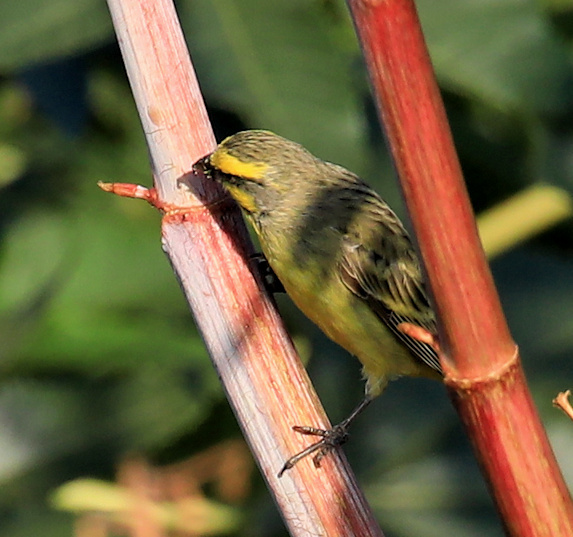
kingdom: Animalia
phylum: Chordata
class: Aves
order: Passeriformes
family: Fringillidae
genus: Crithagra
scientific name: Crithagra mozambica
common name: Yellow-fronted canary
